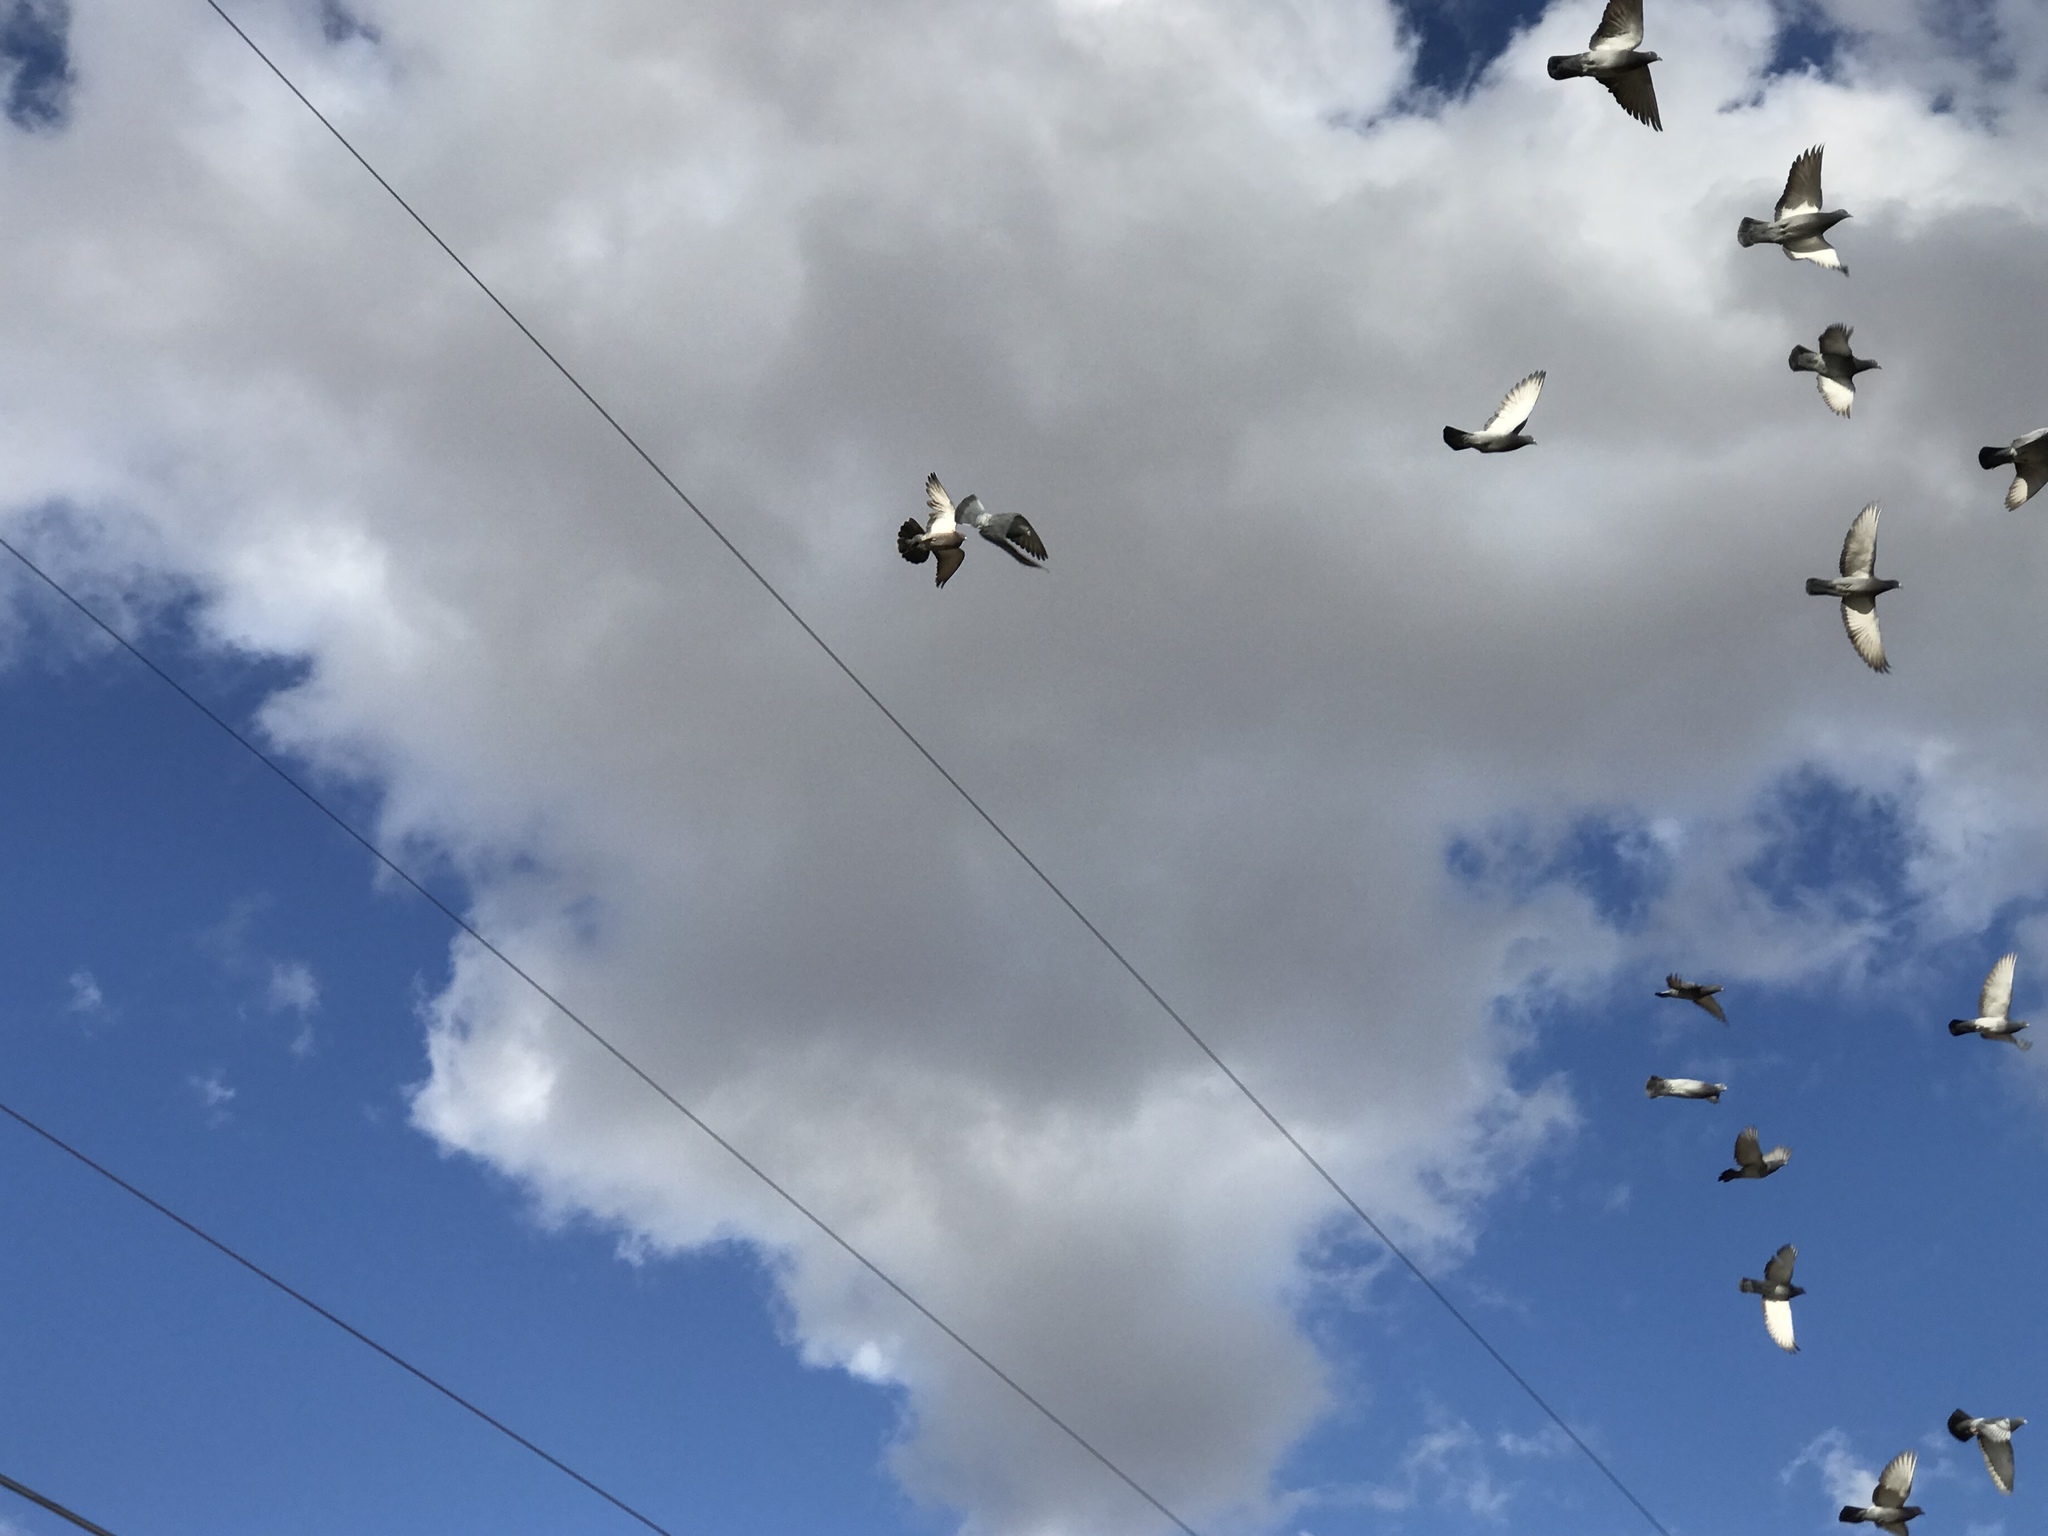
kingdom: Animalia
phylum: Chordata
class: Aves
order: Columbiformes
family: Columbidae
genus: Columba
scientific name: Columba livia
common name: Rock pigeon
